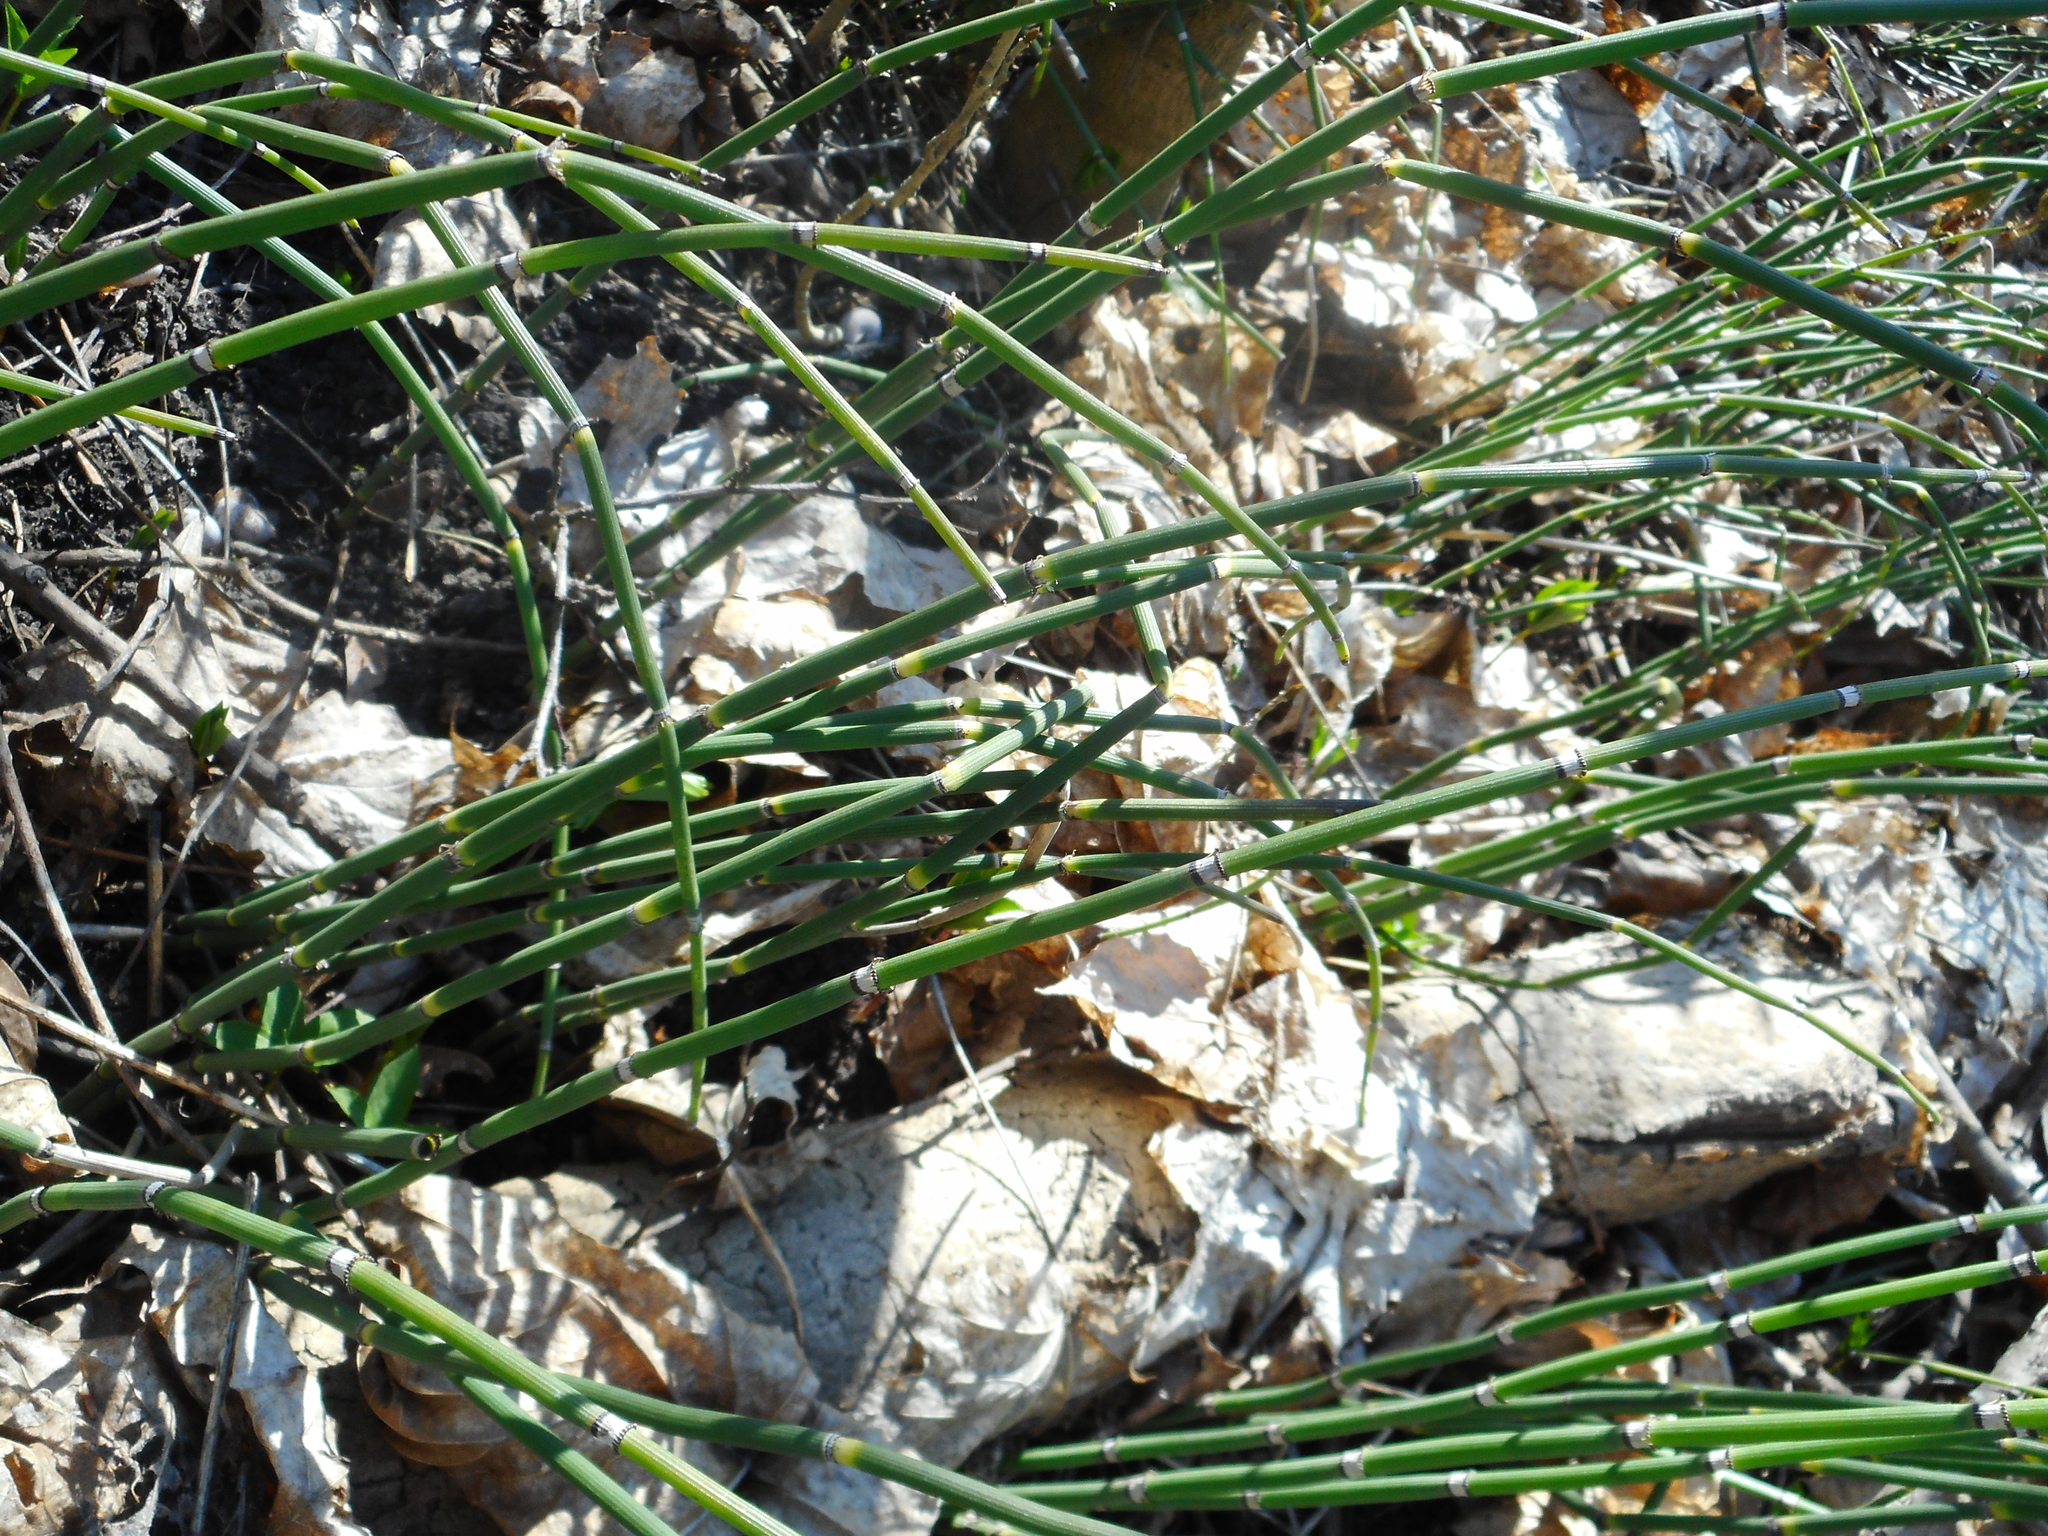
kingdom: Plantae
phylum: Tracheophyta
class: Polypodiopsida
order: Equisetales
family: Equisetaceae
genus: Equisetum
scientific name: Equisetum hyemale
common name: Rough horsetail
